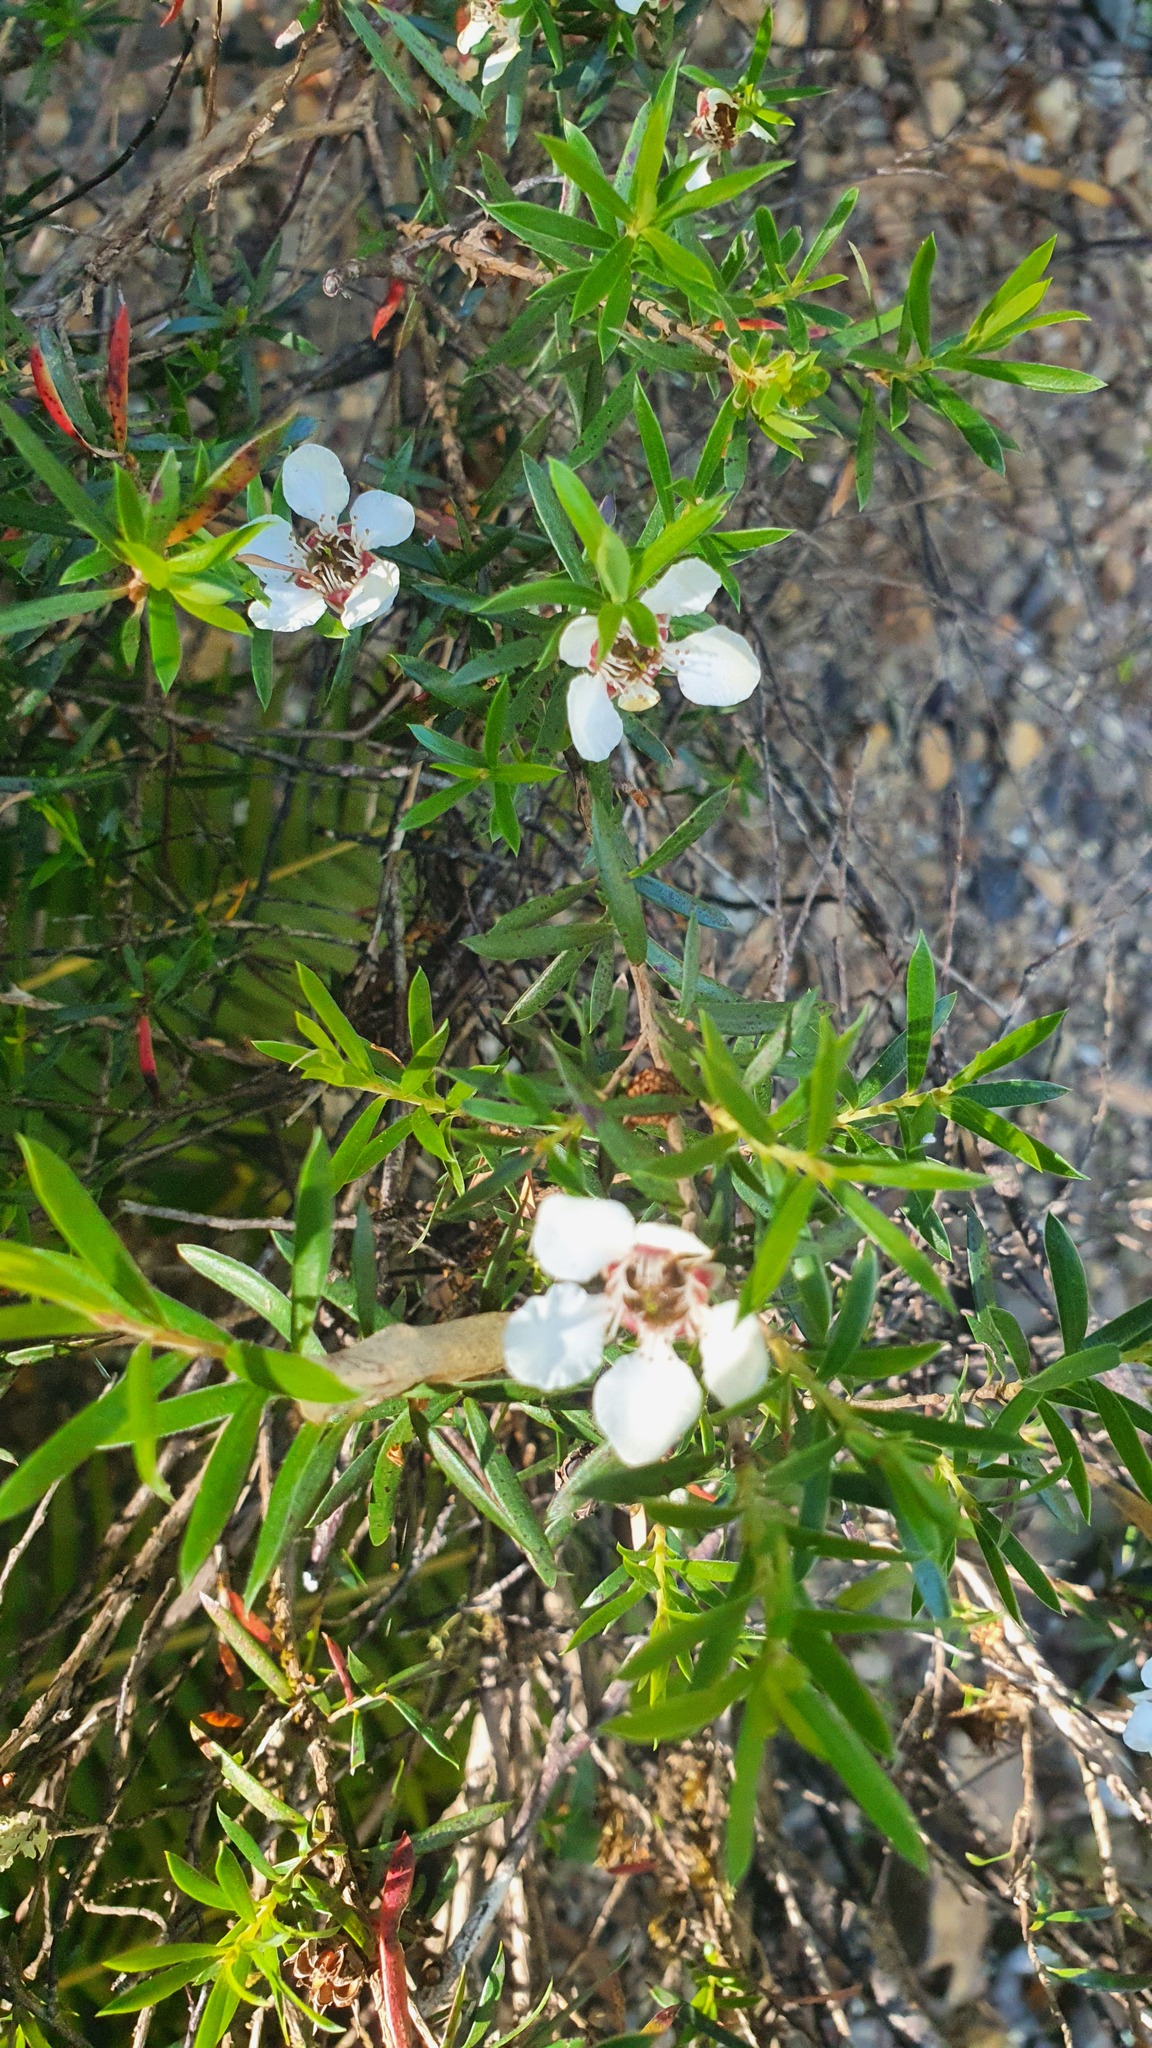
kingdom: Plantae
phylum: Tracheophyta
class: Magnoliopsida
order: Myrtales
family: Myrtaceae
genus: Leptospermum
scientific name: Leptospermum riparium
